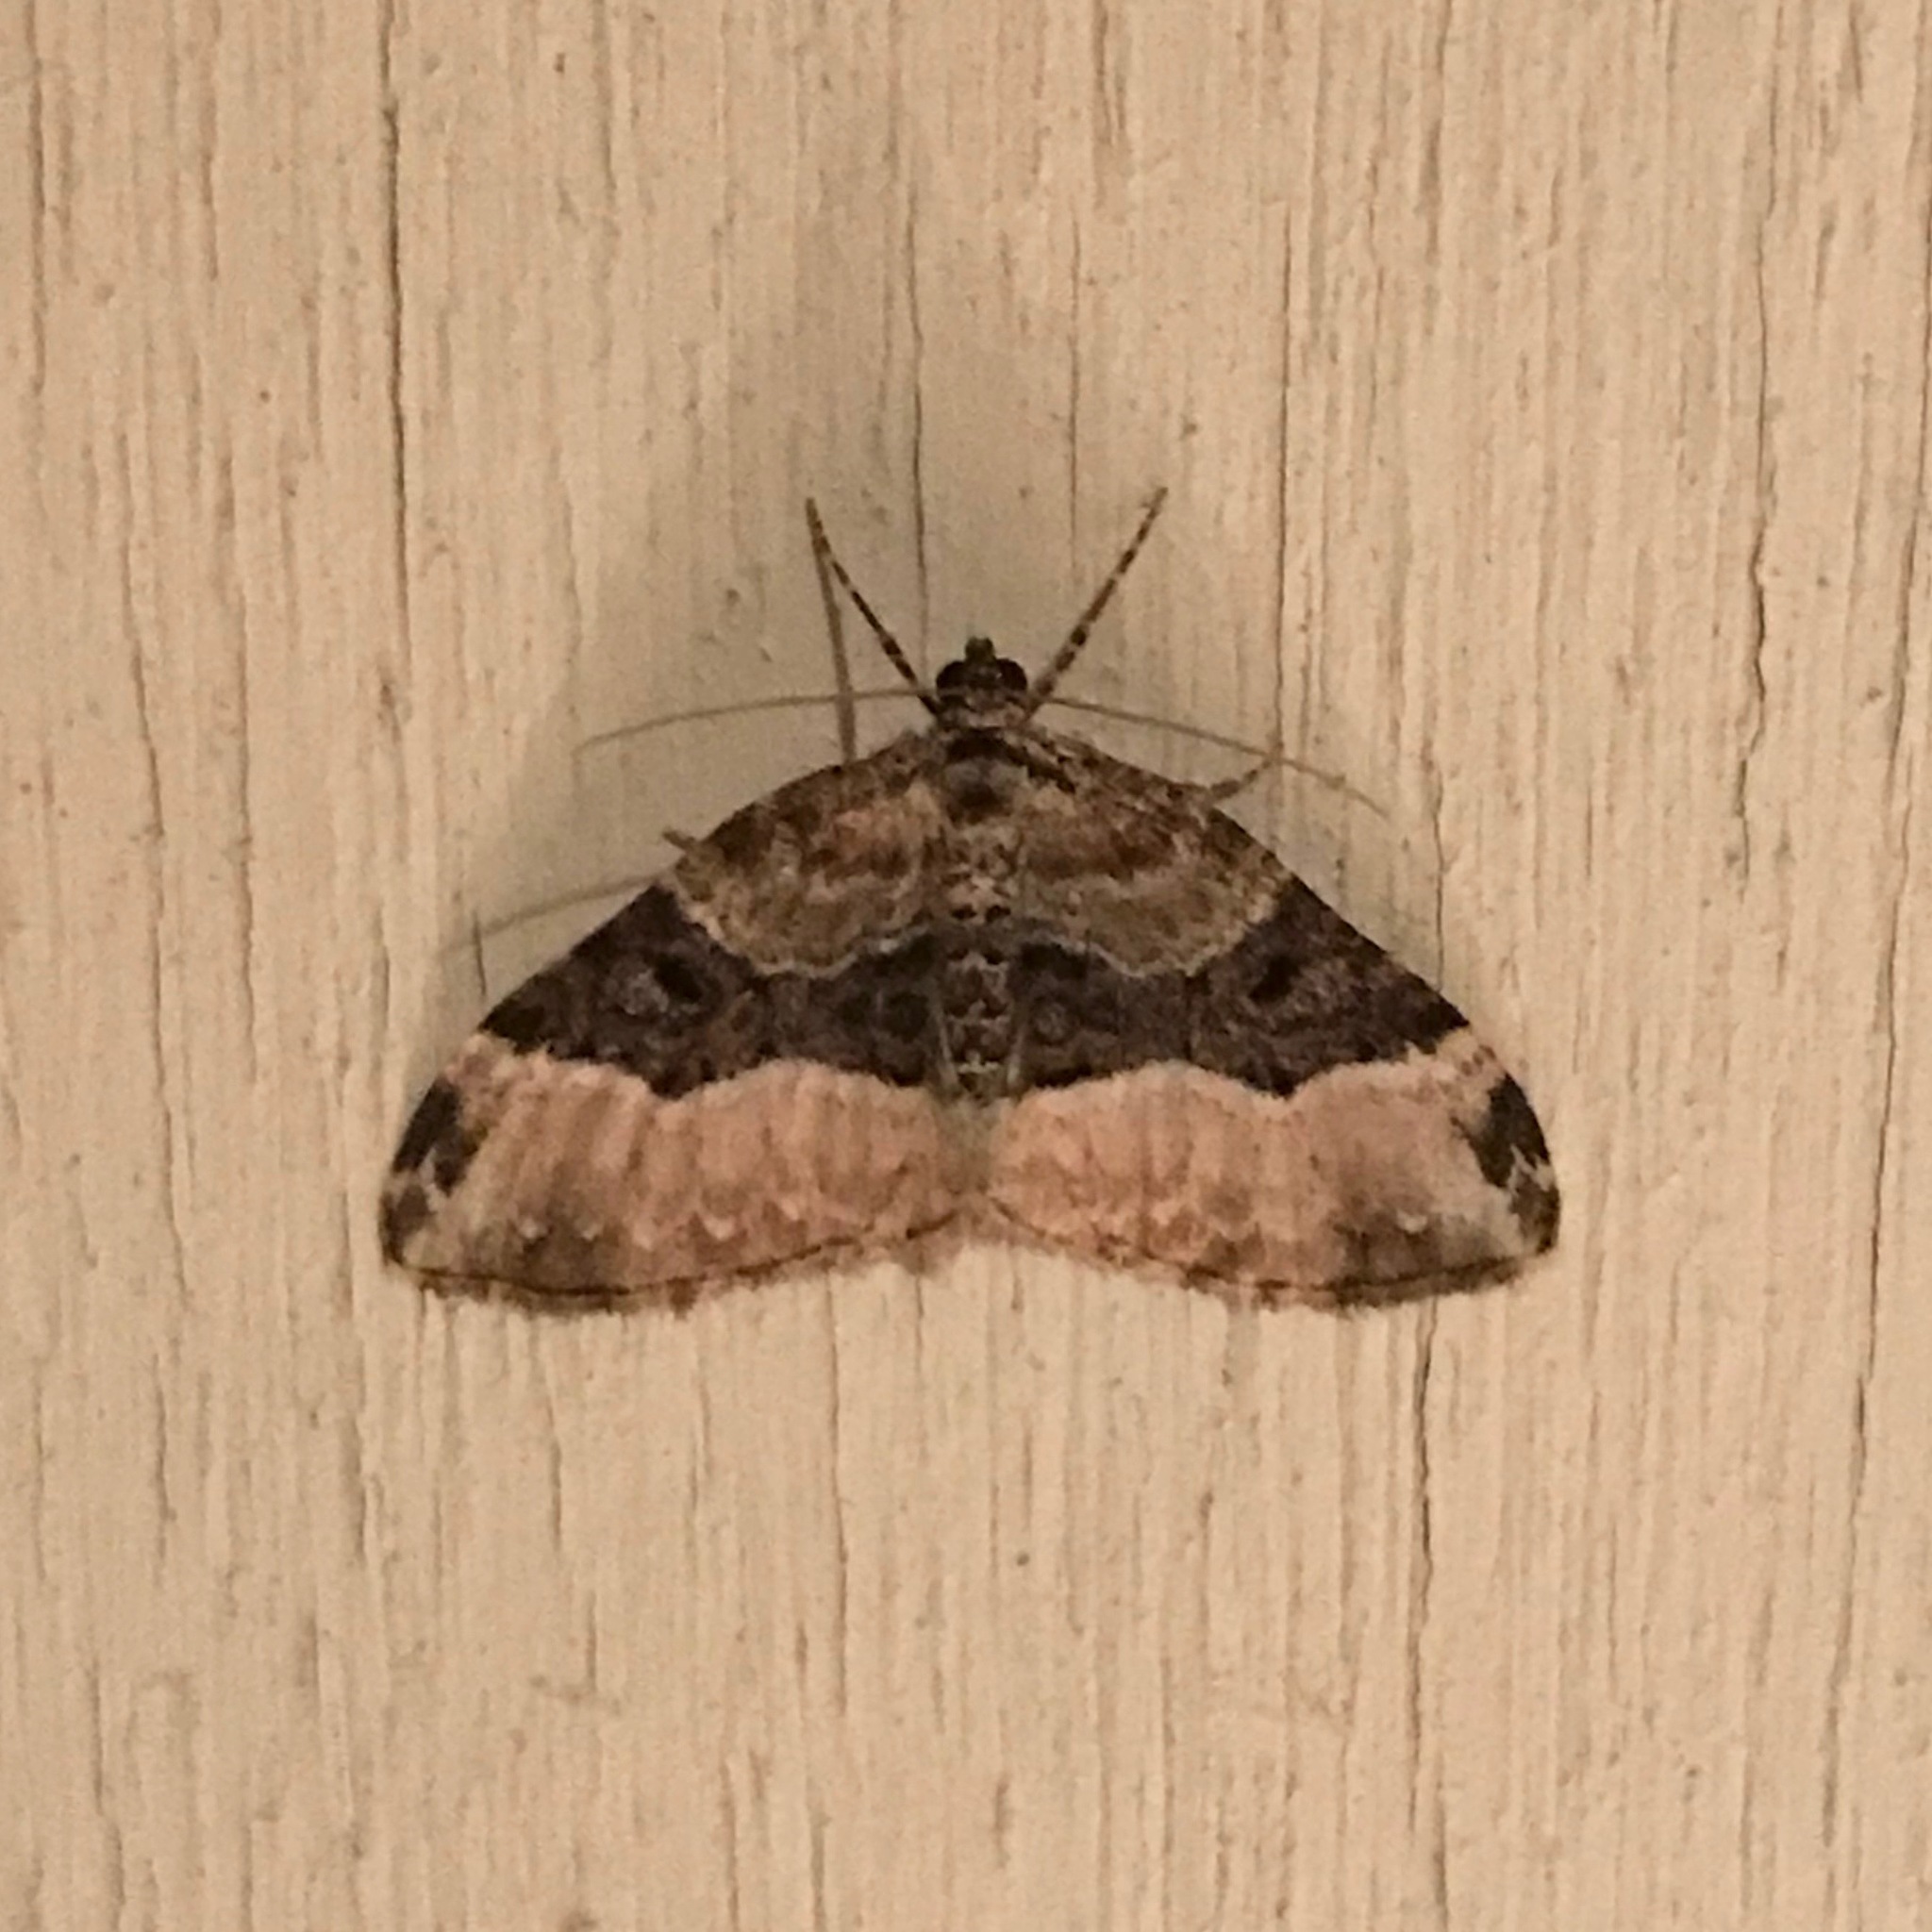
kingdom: Animalia
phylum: Arthropoda
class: Insecta
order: Lepidoptera
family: Geometridae
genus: Euphyia
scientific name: Euphyia intermediata
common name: Sharp-angled carpet
